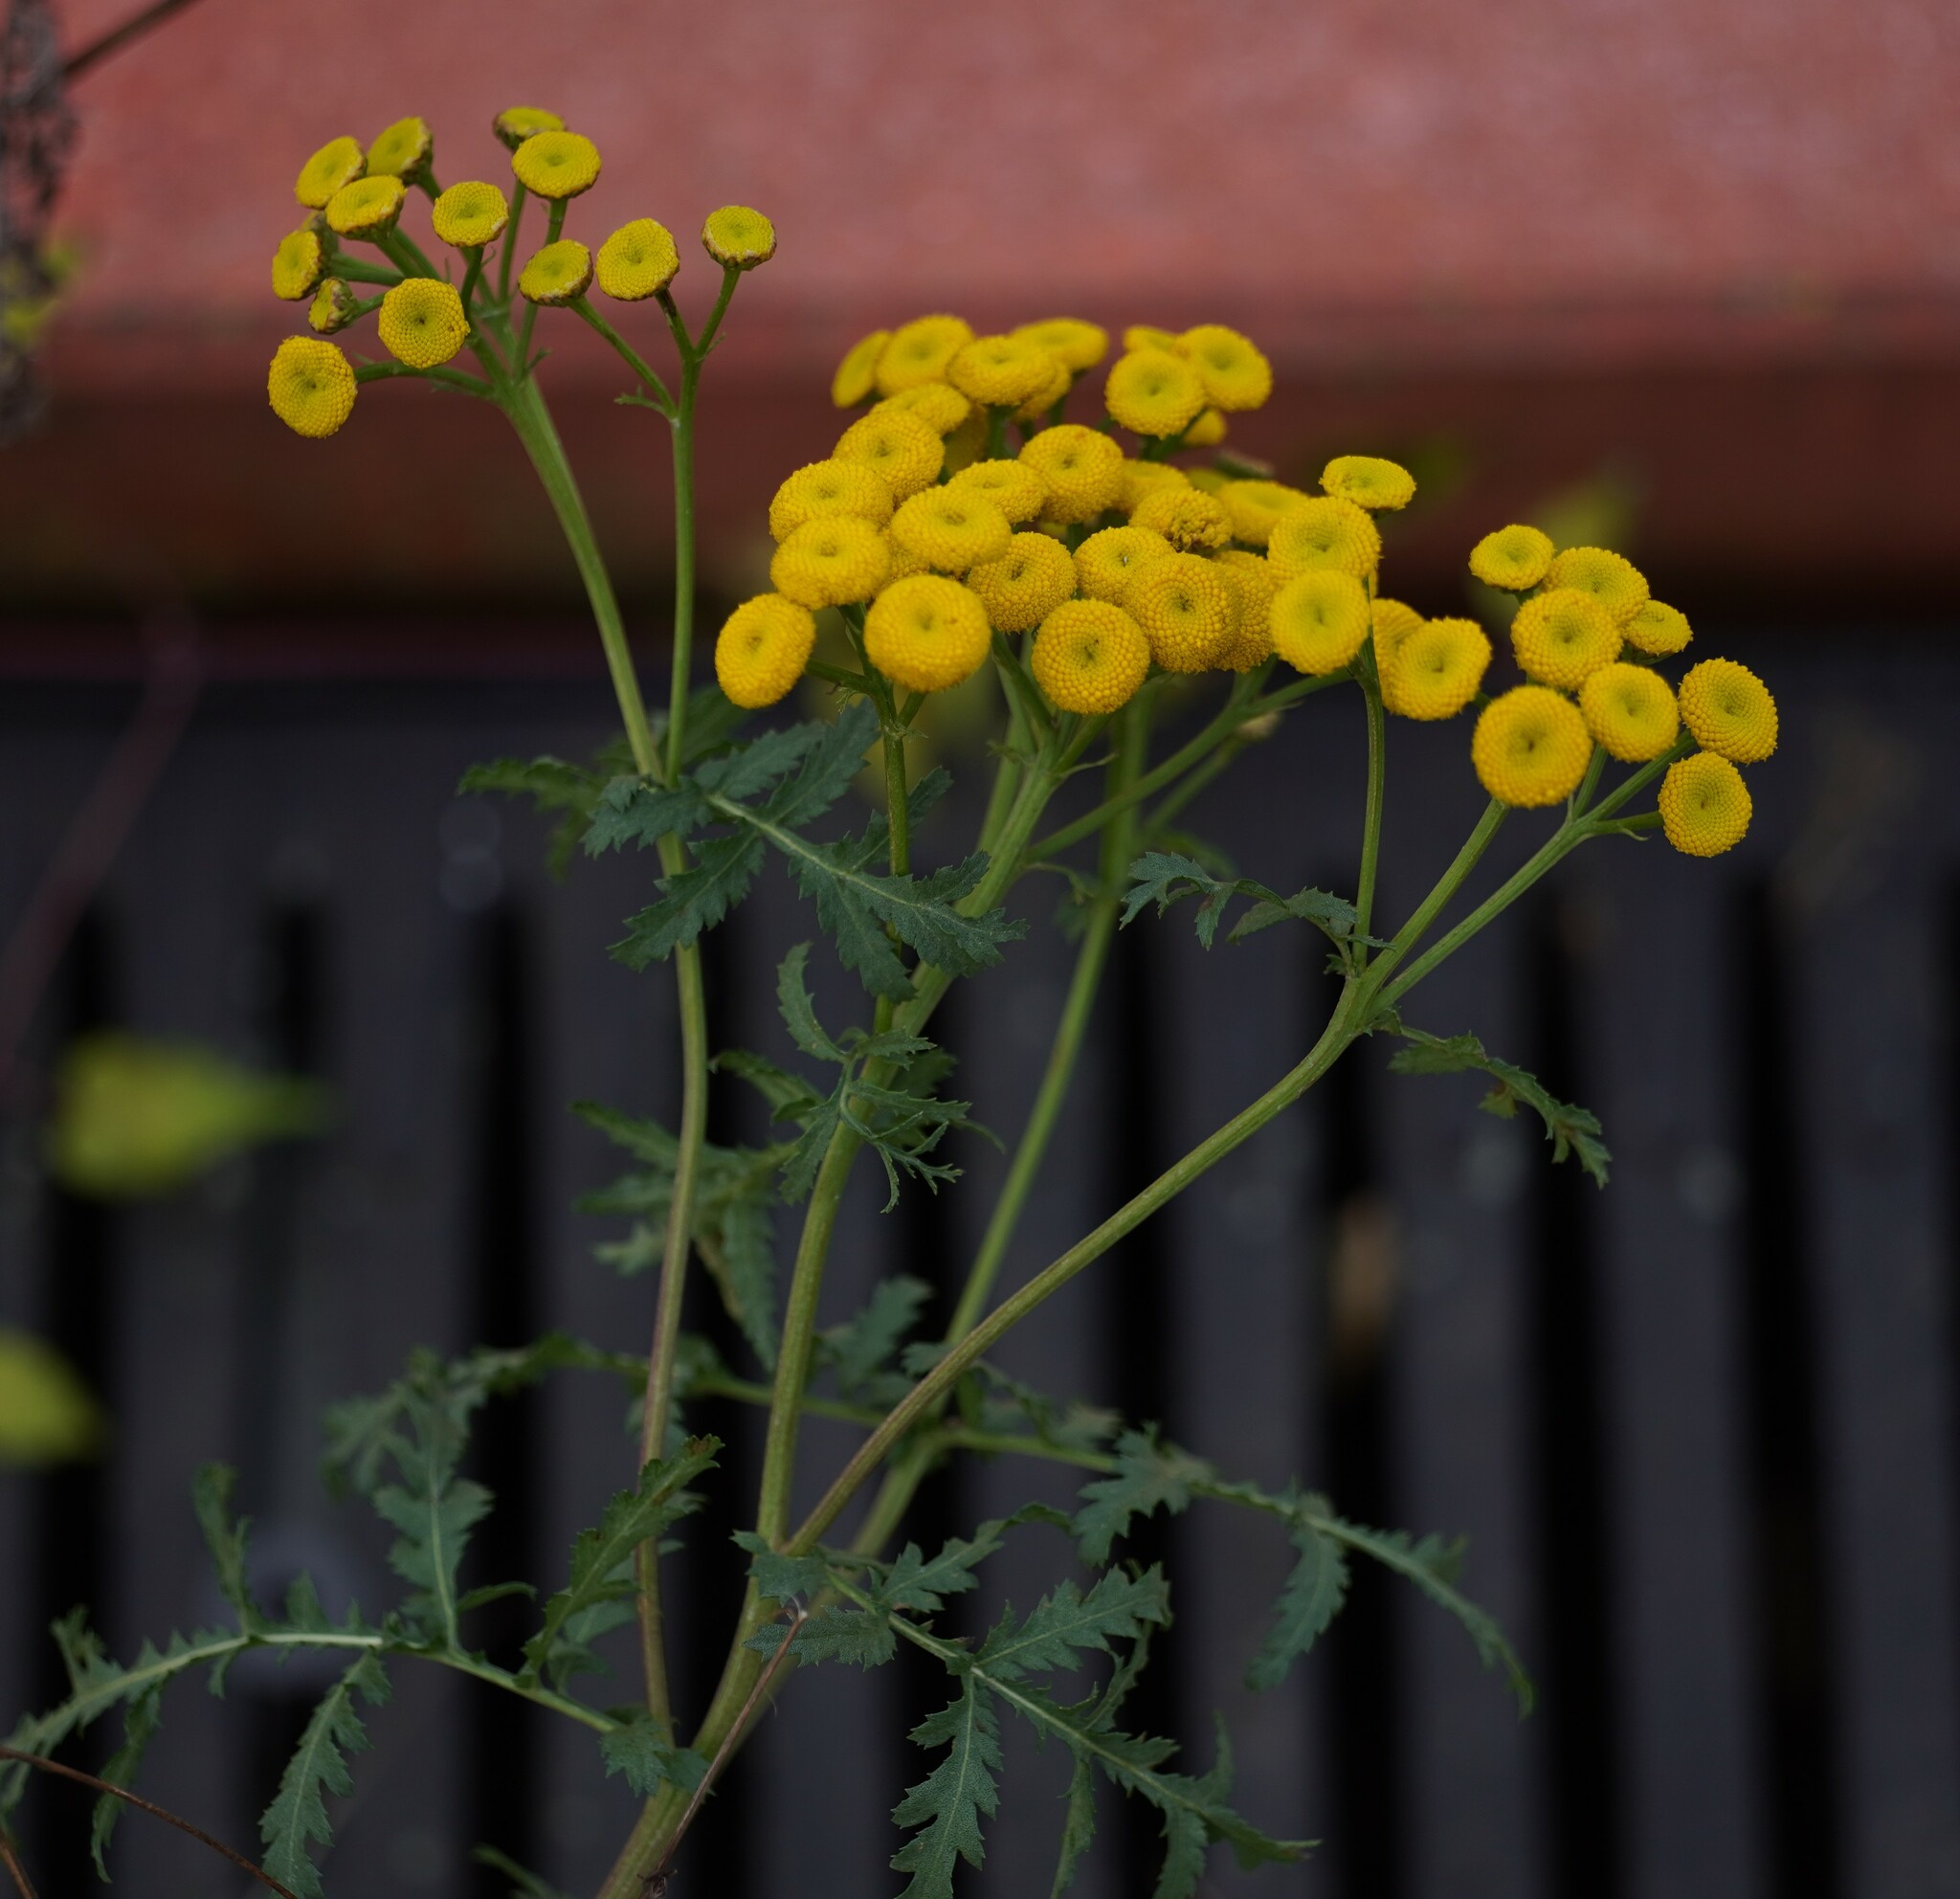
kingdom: Plantae
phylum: Tracheophyta
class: Magnoliopsida
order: Asterales
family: Asteraceae
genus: Tanacetum
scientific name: Tanacetum vulgare
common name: Common tansy
